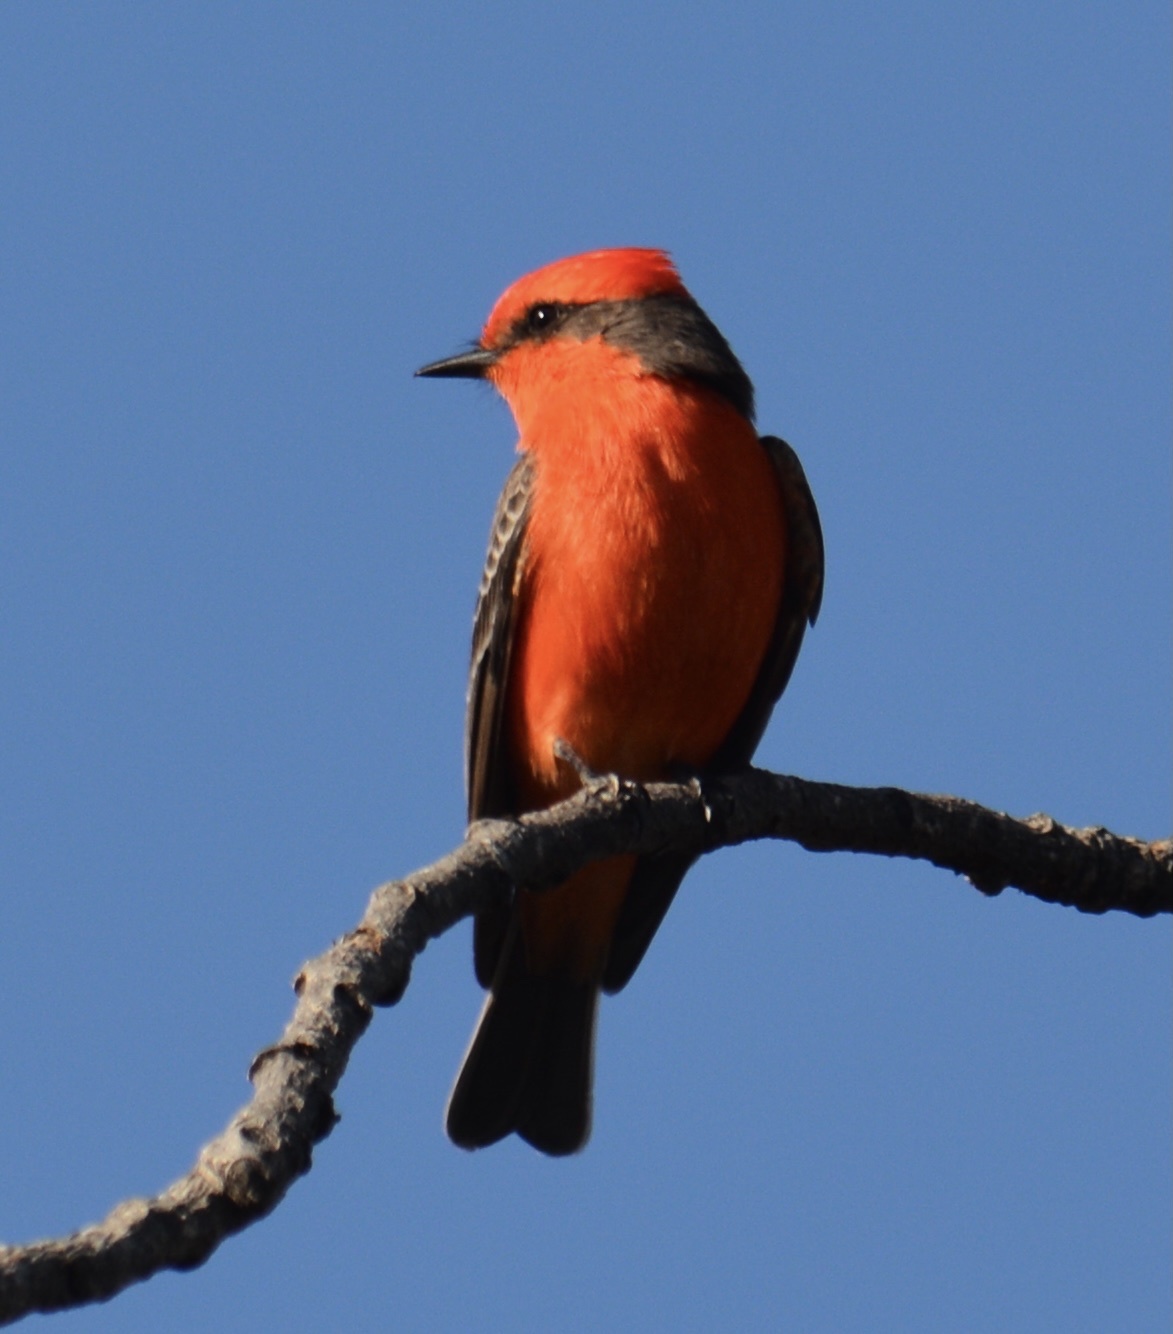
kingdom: Animalia
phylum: Chordata
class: Aves
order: Passeriformes
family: Tyrannidae
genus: Pyrocephalus
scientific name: Pyrocephalus rubinus
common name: Vermilion flycatcher
